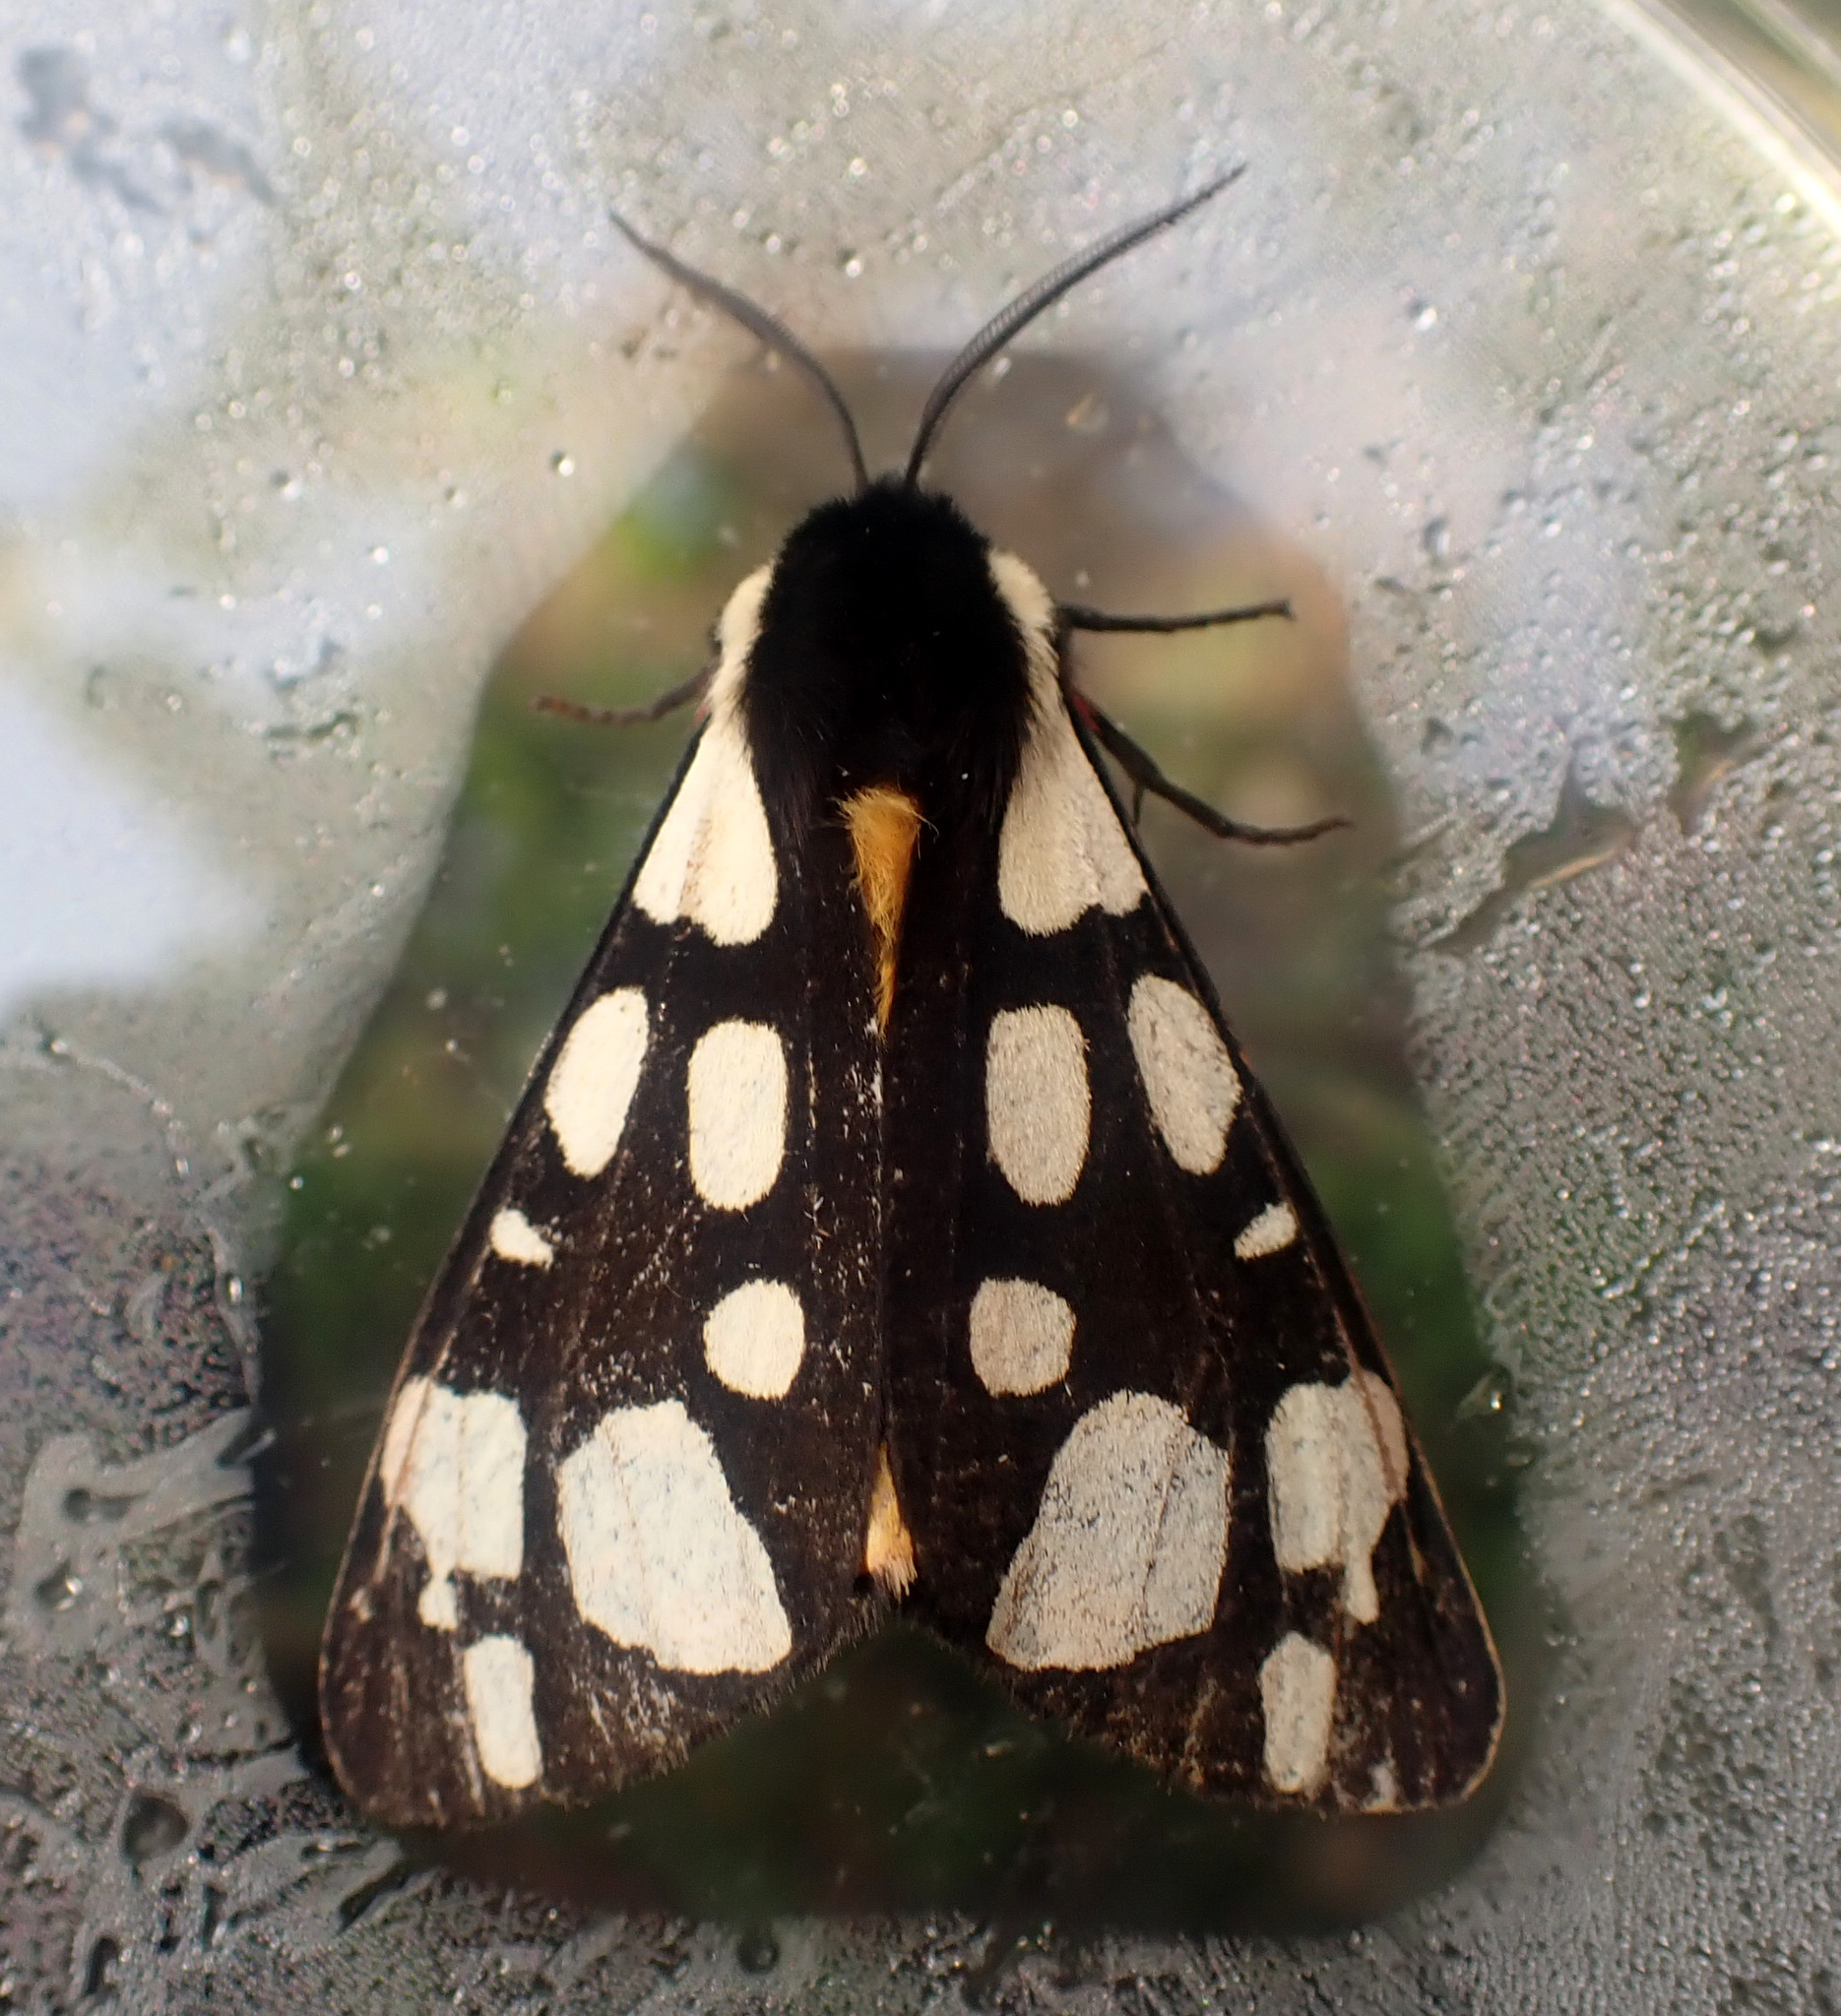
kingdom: Animalia
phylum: Arthropoda
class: Insecta
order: Lepidoptera
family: Erebidae
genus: Epicallia
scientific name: Epicallia villica
